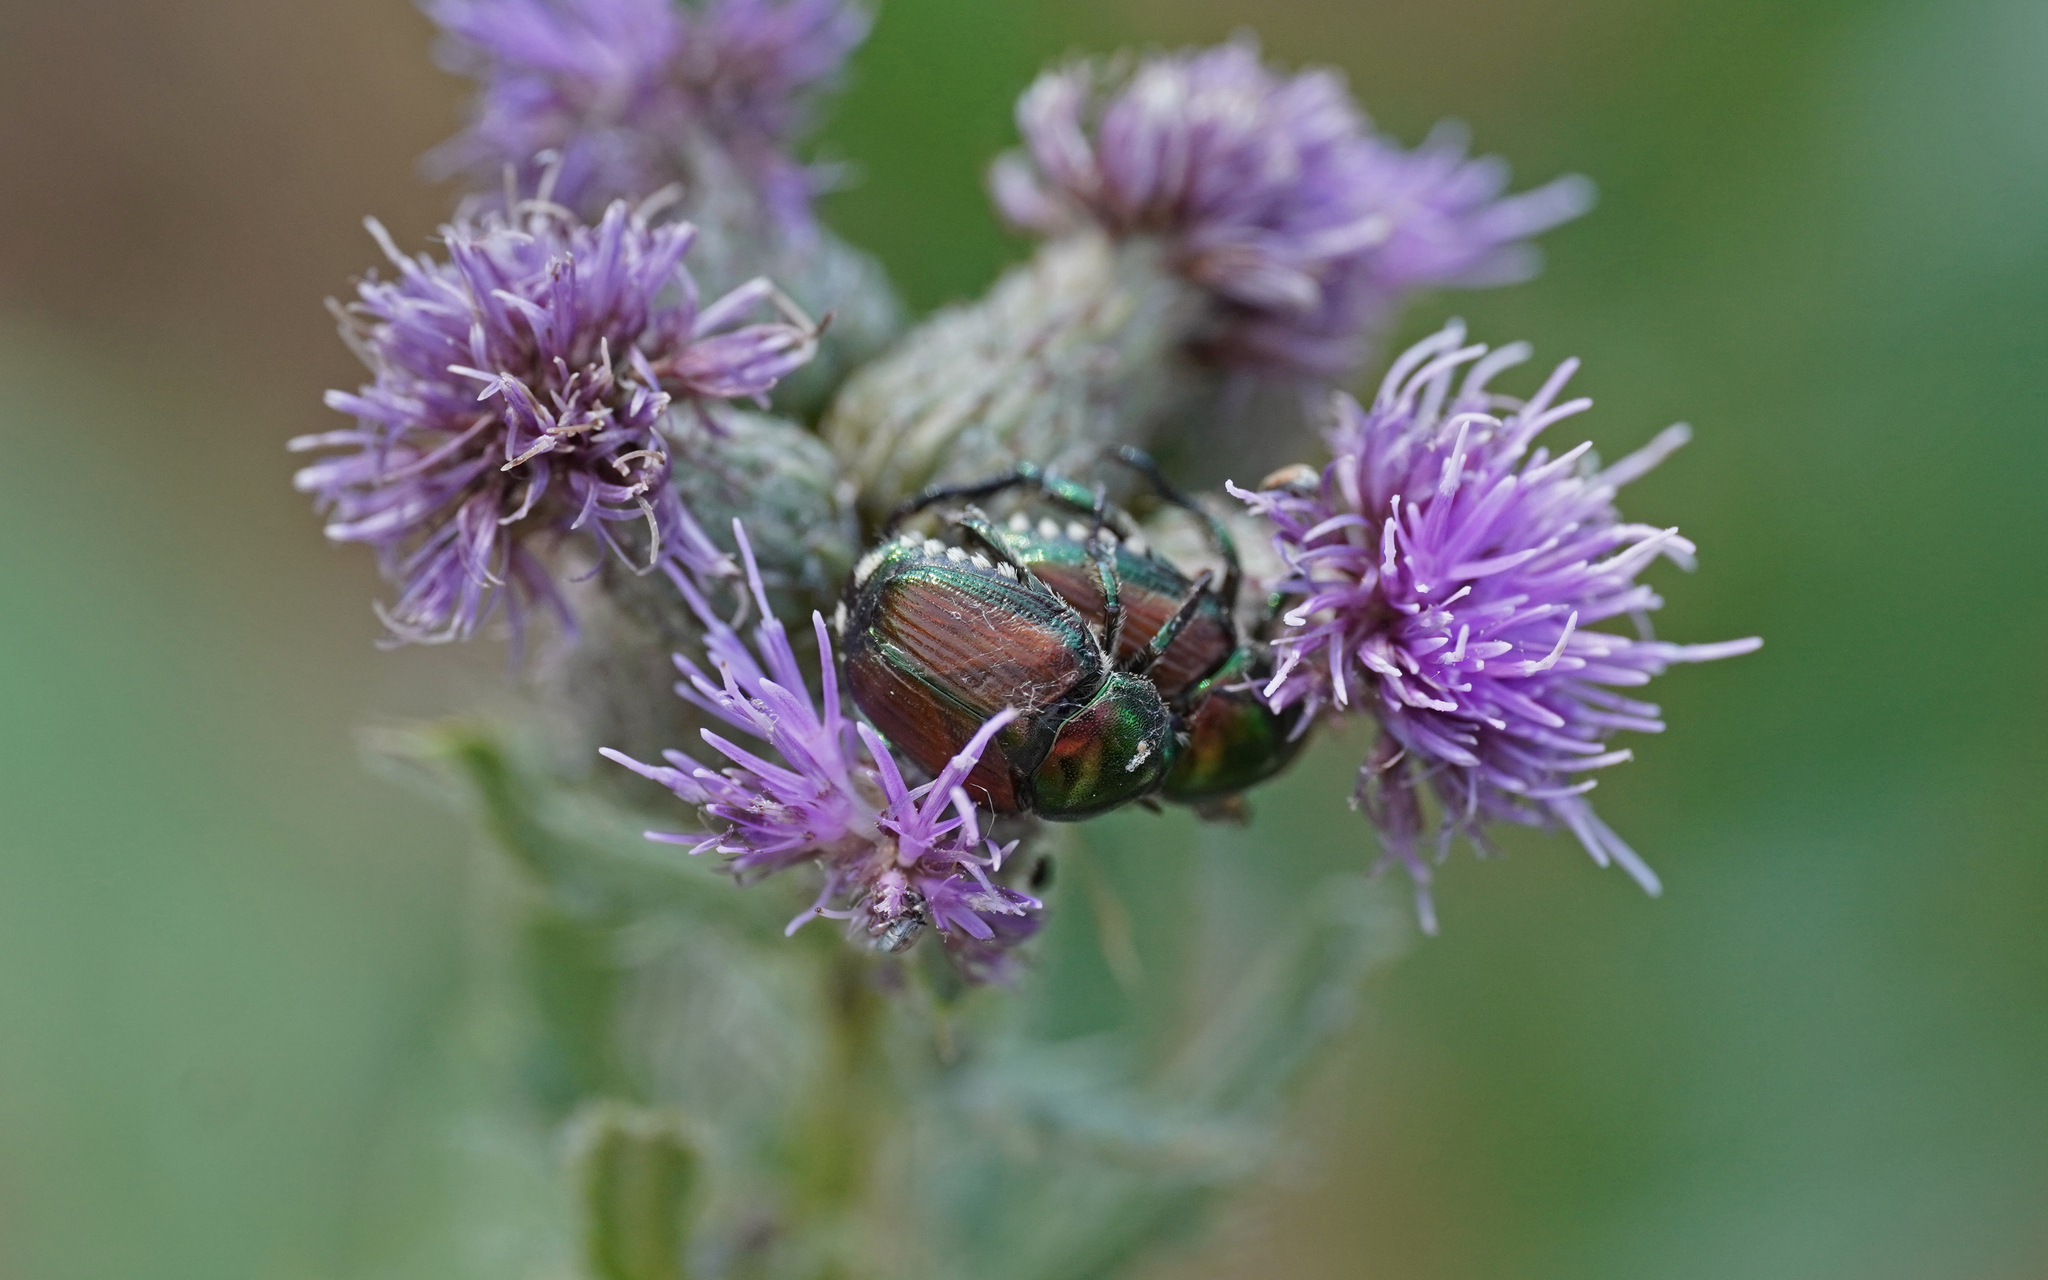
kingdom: Animalia
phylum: Arthropoda
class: Insecta
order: Coleoptera
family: Scarabaeidae
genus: Popillia
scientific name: Popillia japonica
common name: Japanese beetle
